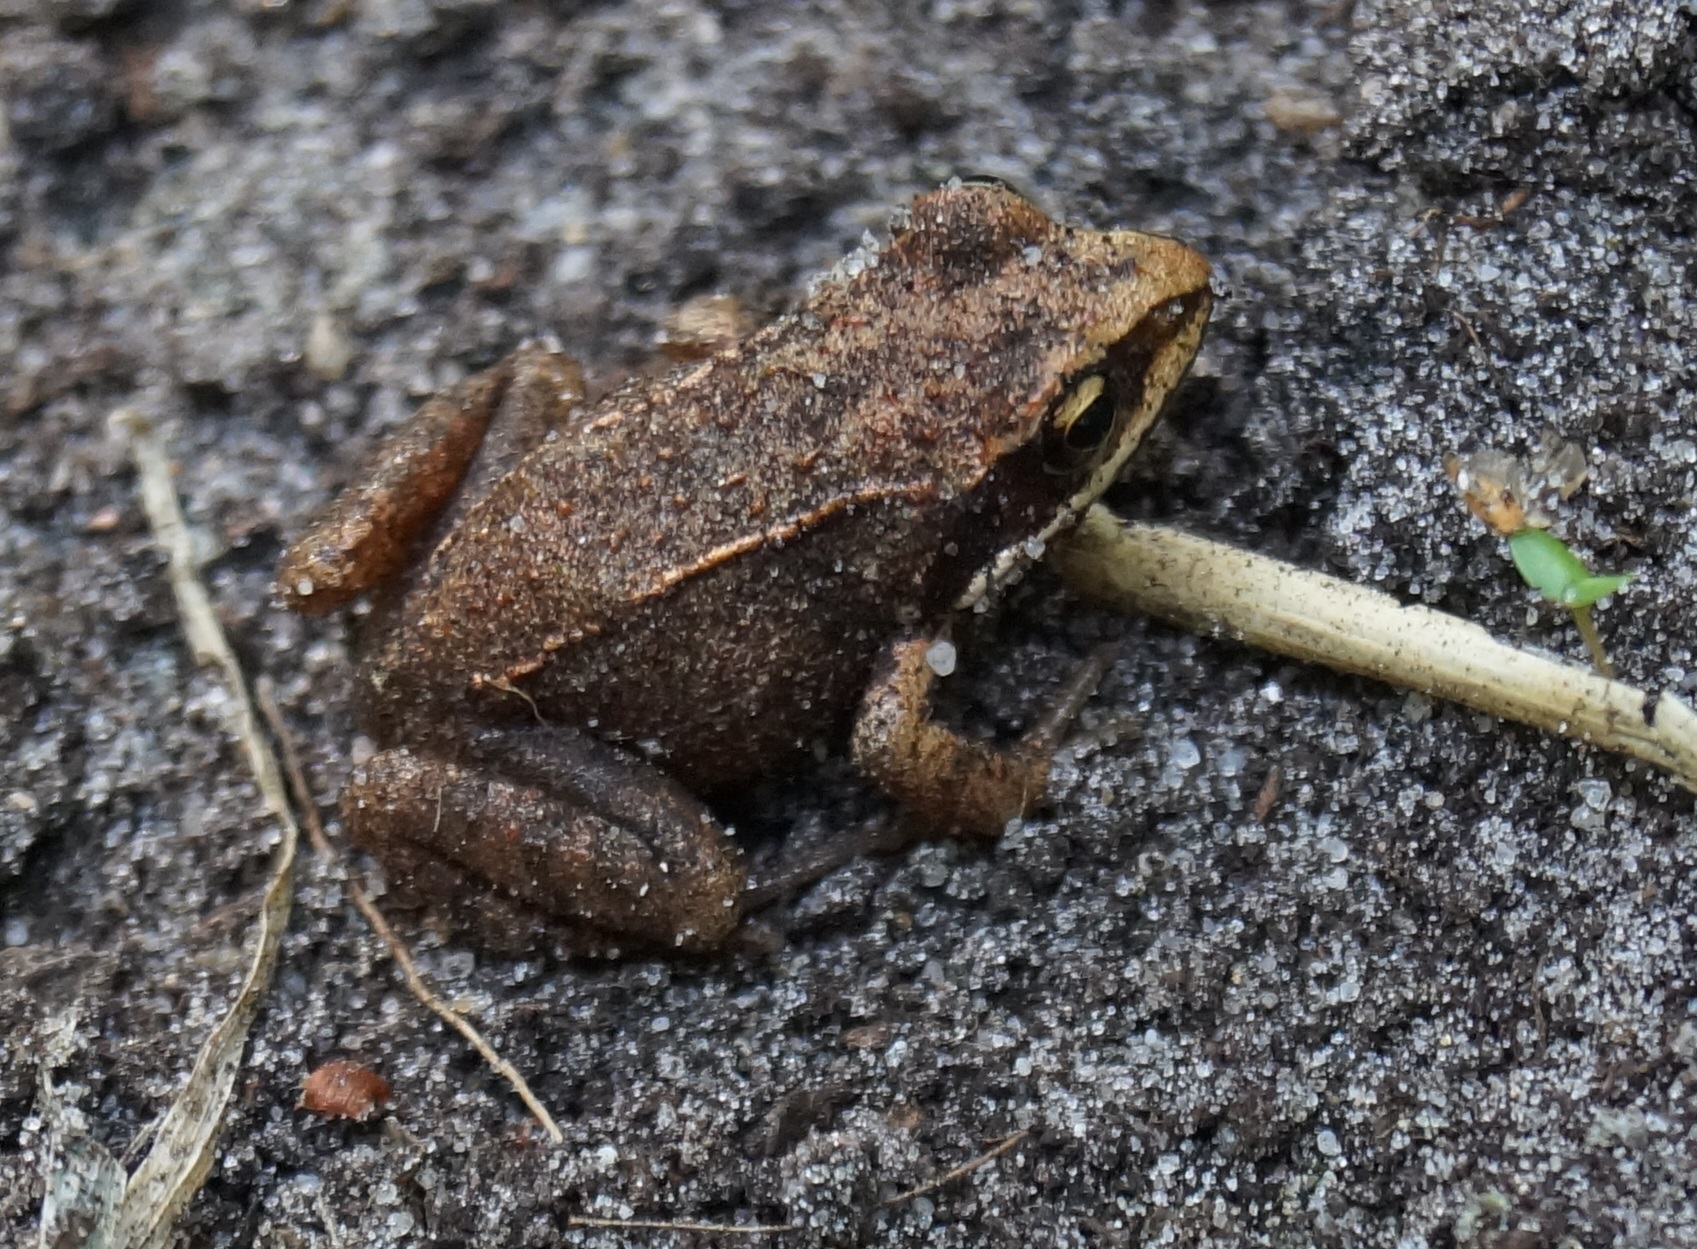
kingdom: Animalia
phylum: Chordata
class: Amphibia
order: Anura
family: Ranidae
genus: Rana
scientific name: Rana arvalis
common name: Moor frog
